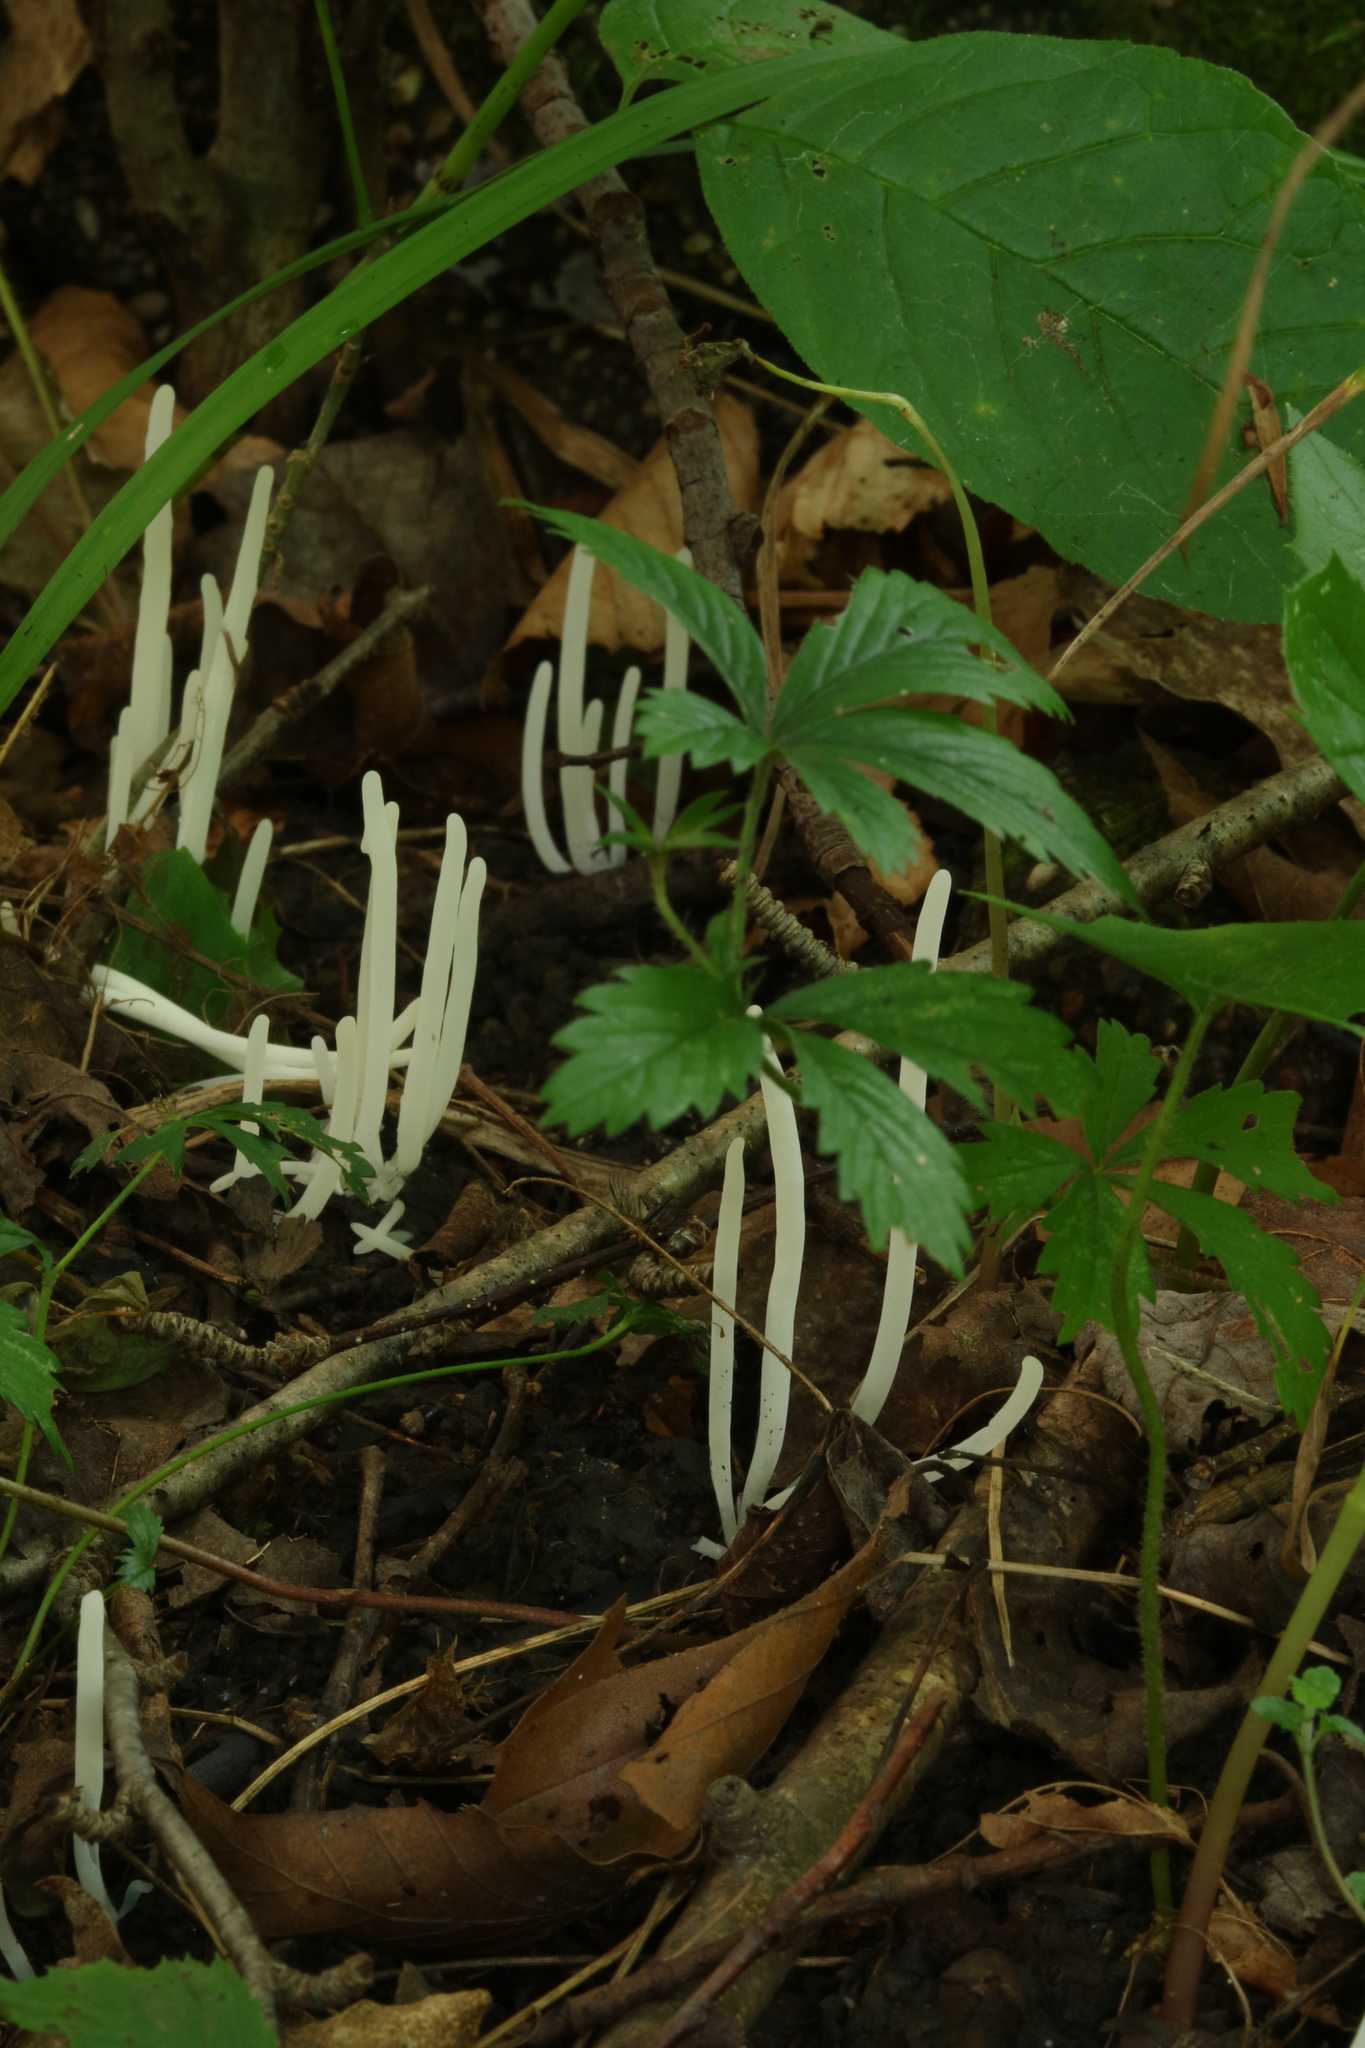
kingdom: Fungi
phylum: Basidiomycota
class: Agaricomycetes
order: Agaricales
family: Clavariaceae
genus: Clavaria
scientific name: Clavaria fragilis
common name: White spindles
